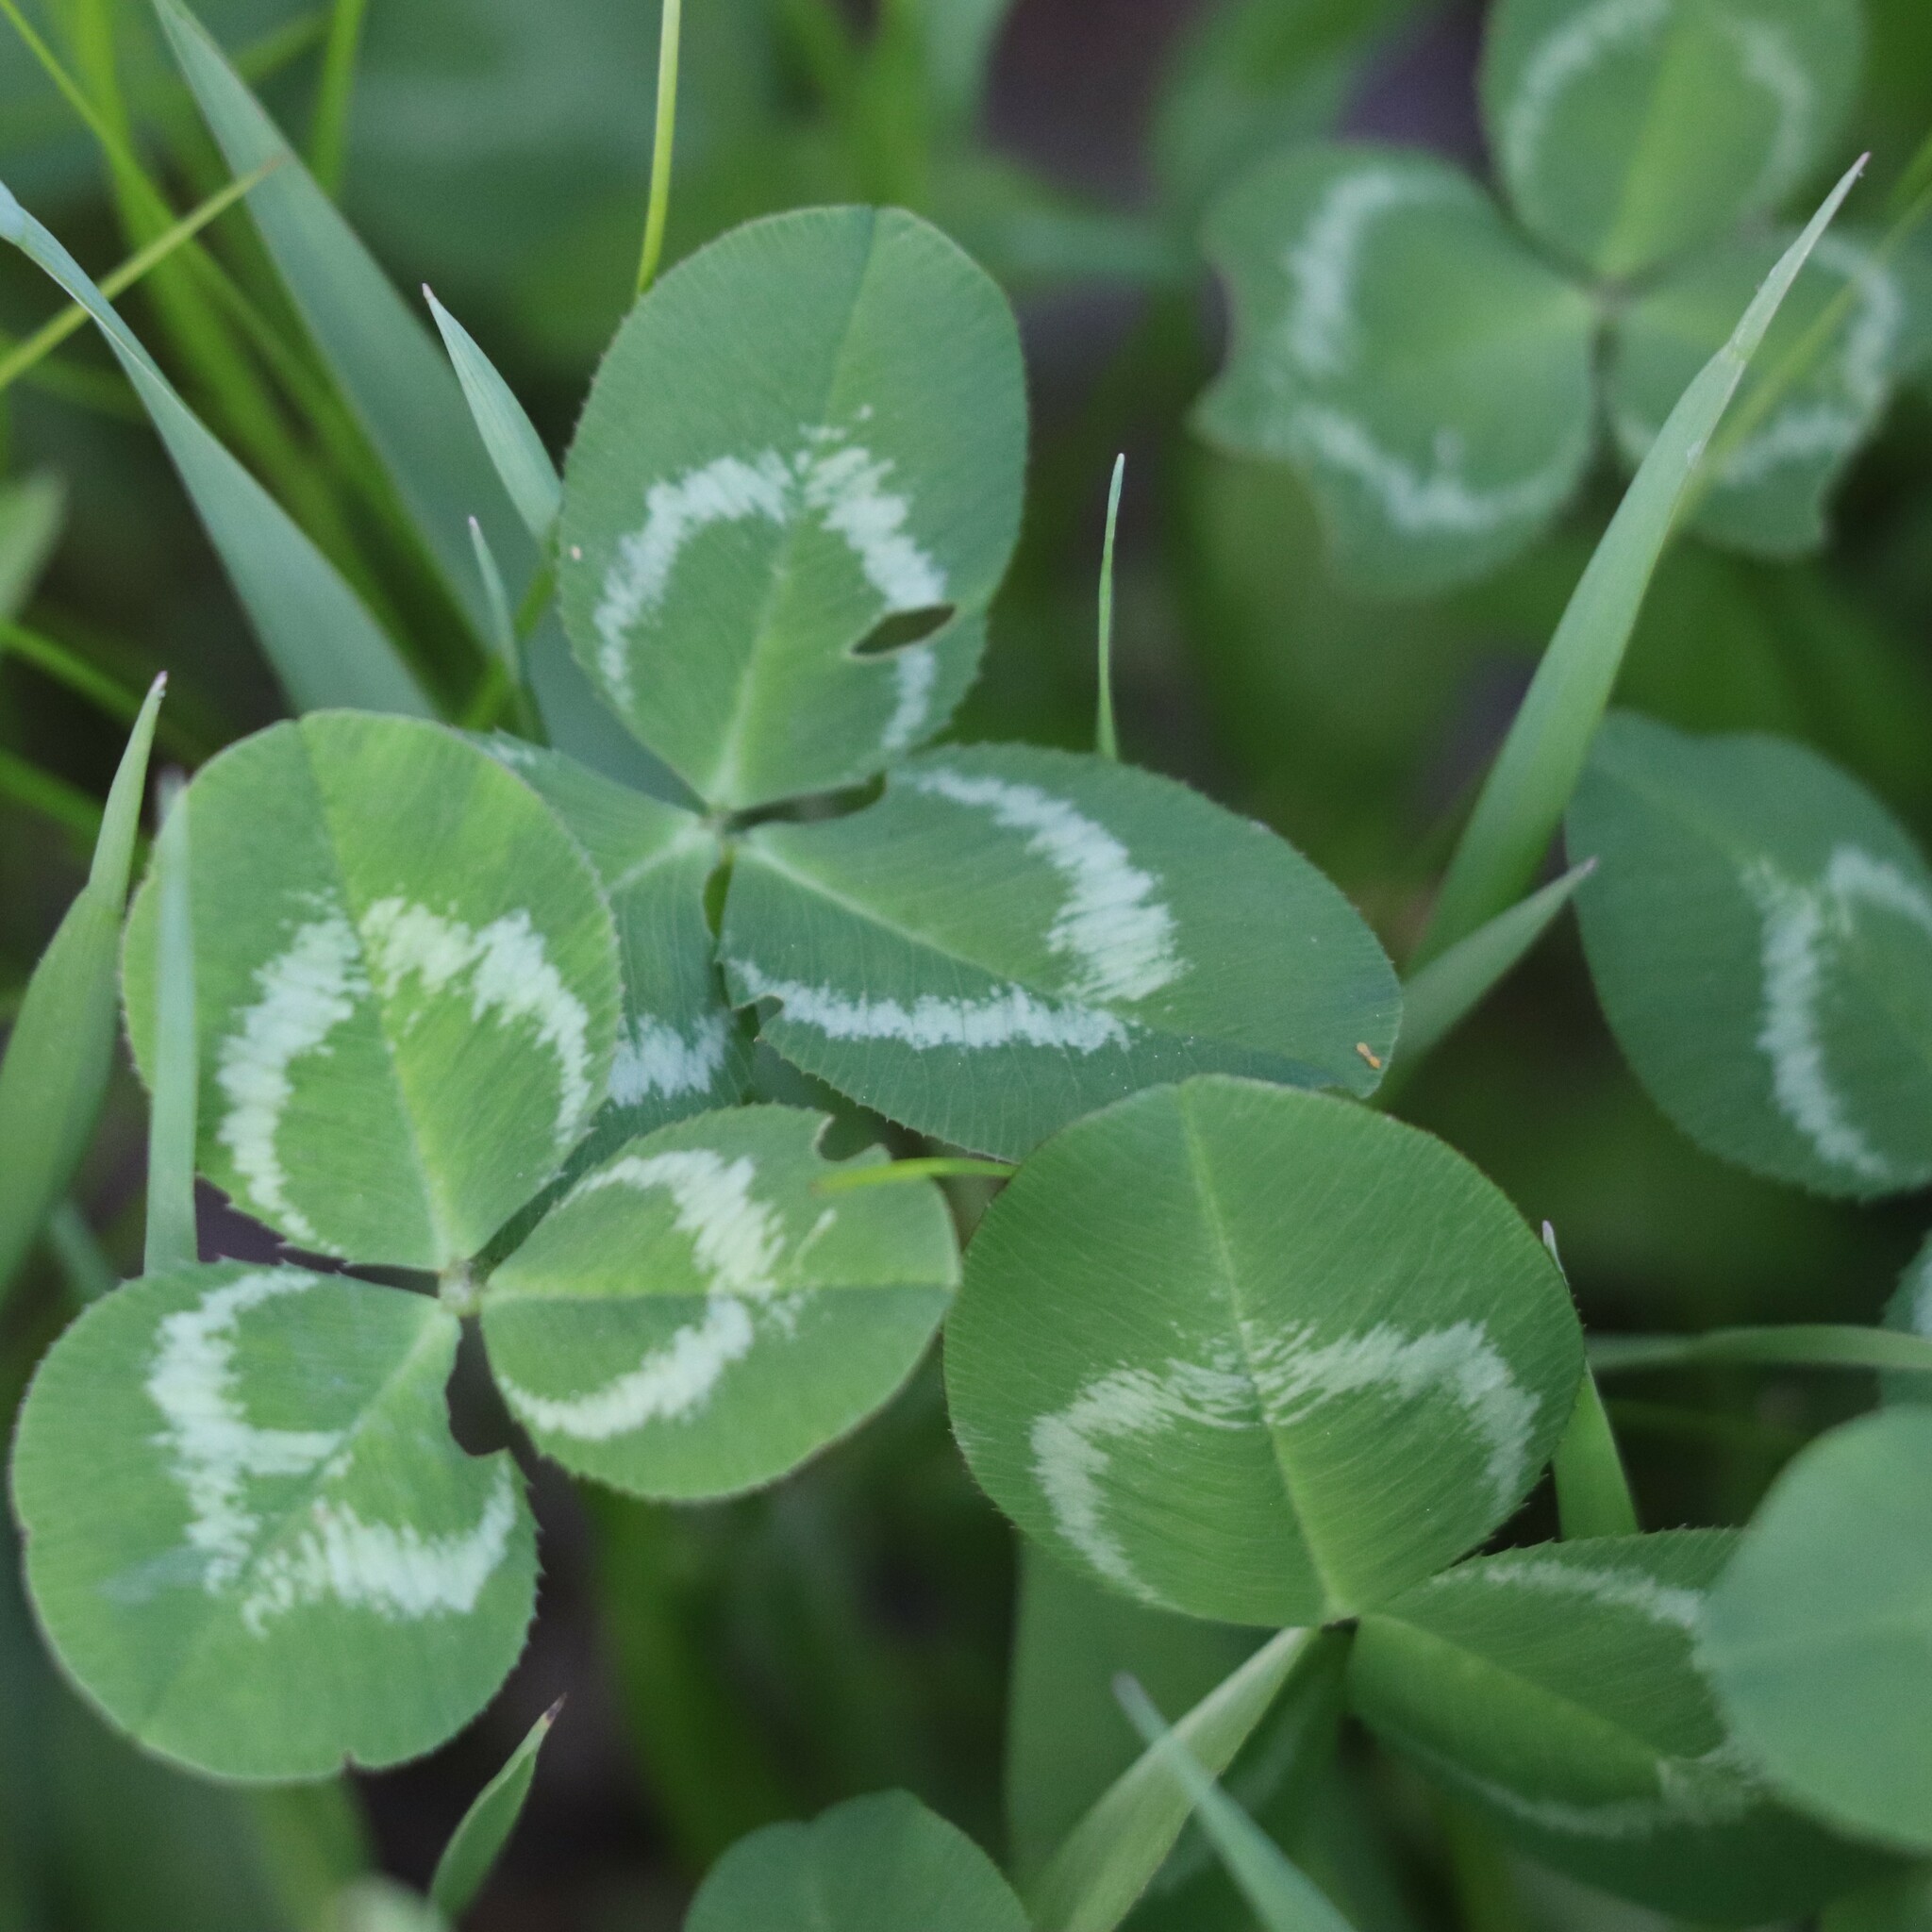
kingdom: Plantae
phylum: Tracheophyta
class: Magnoliopsida
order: Fabales
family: Fabaceae
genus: Trifolium
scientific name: Trifolium repens
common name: White clover
